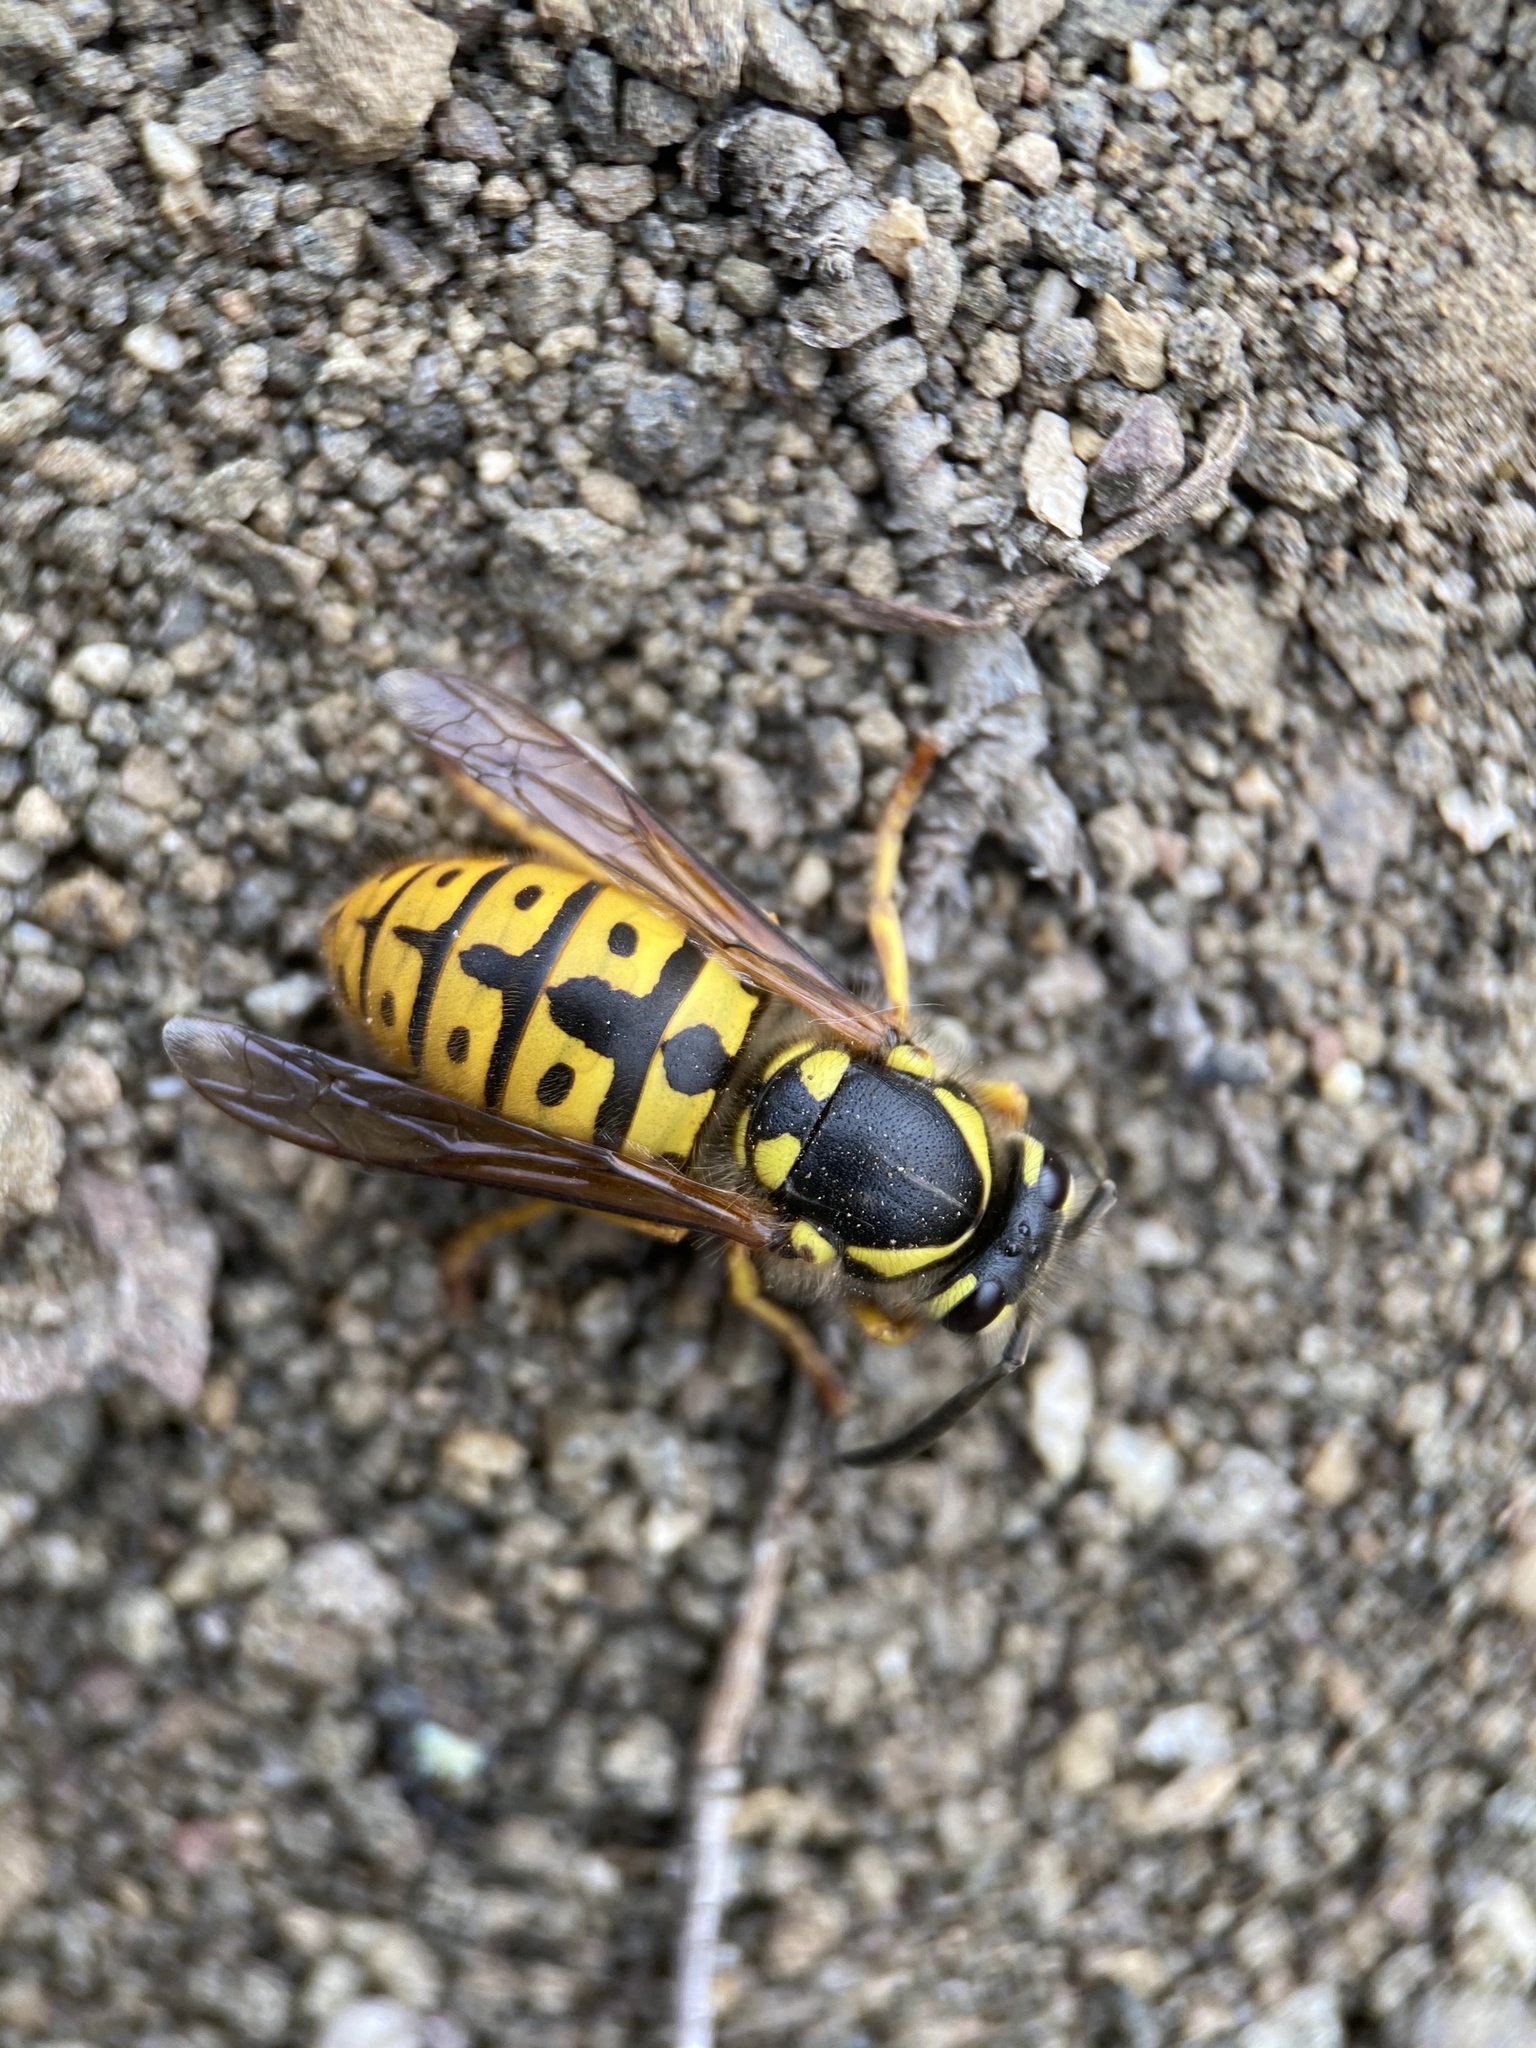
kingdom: Animalia
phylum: Arthropoda
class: Insecta
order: Hymenoptera
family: Vespidae
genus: Vespula
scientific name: Vespula germanica
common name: German wasp
